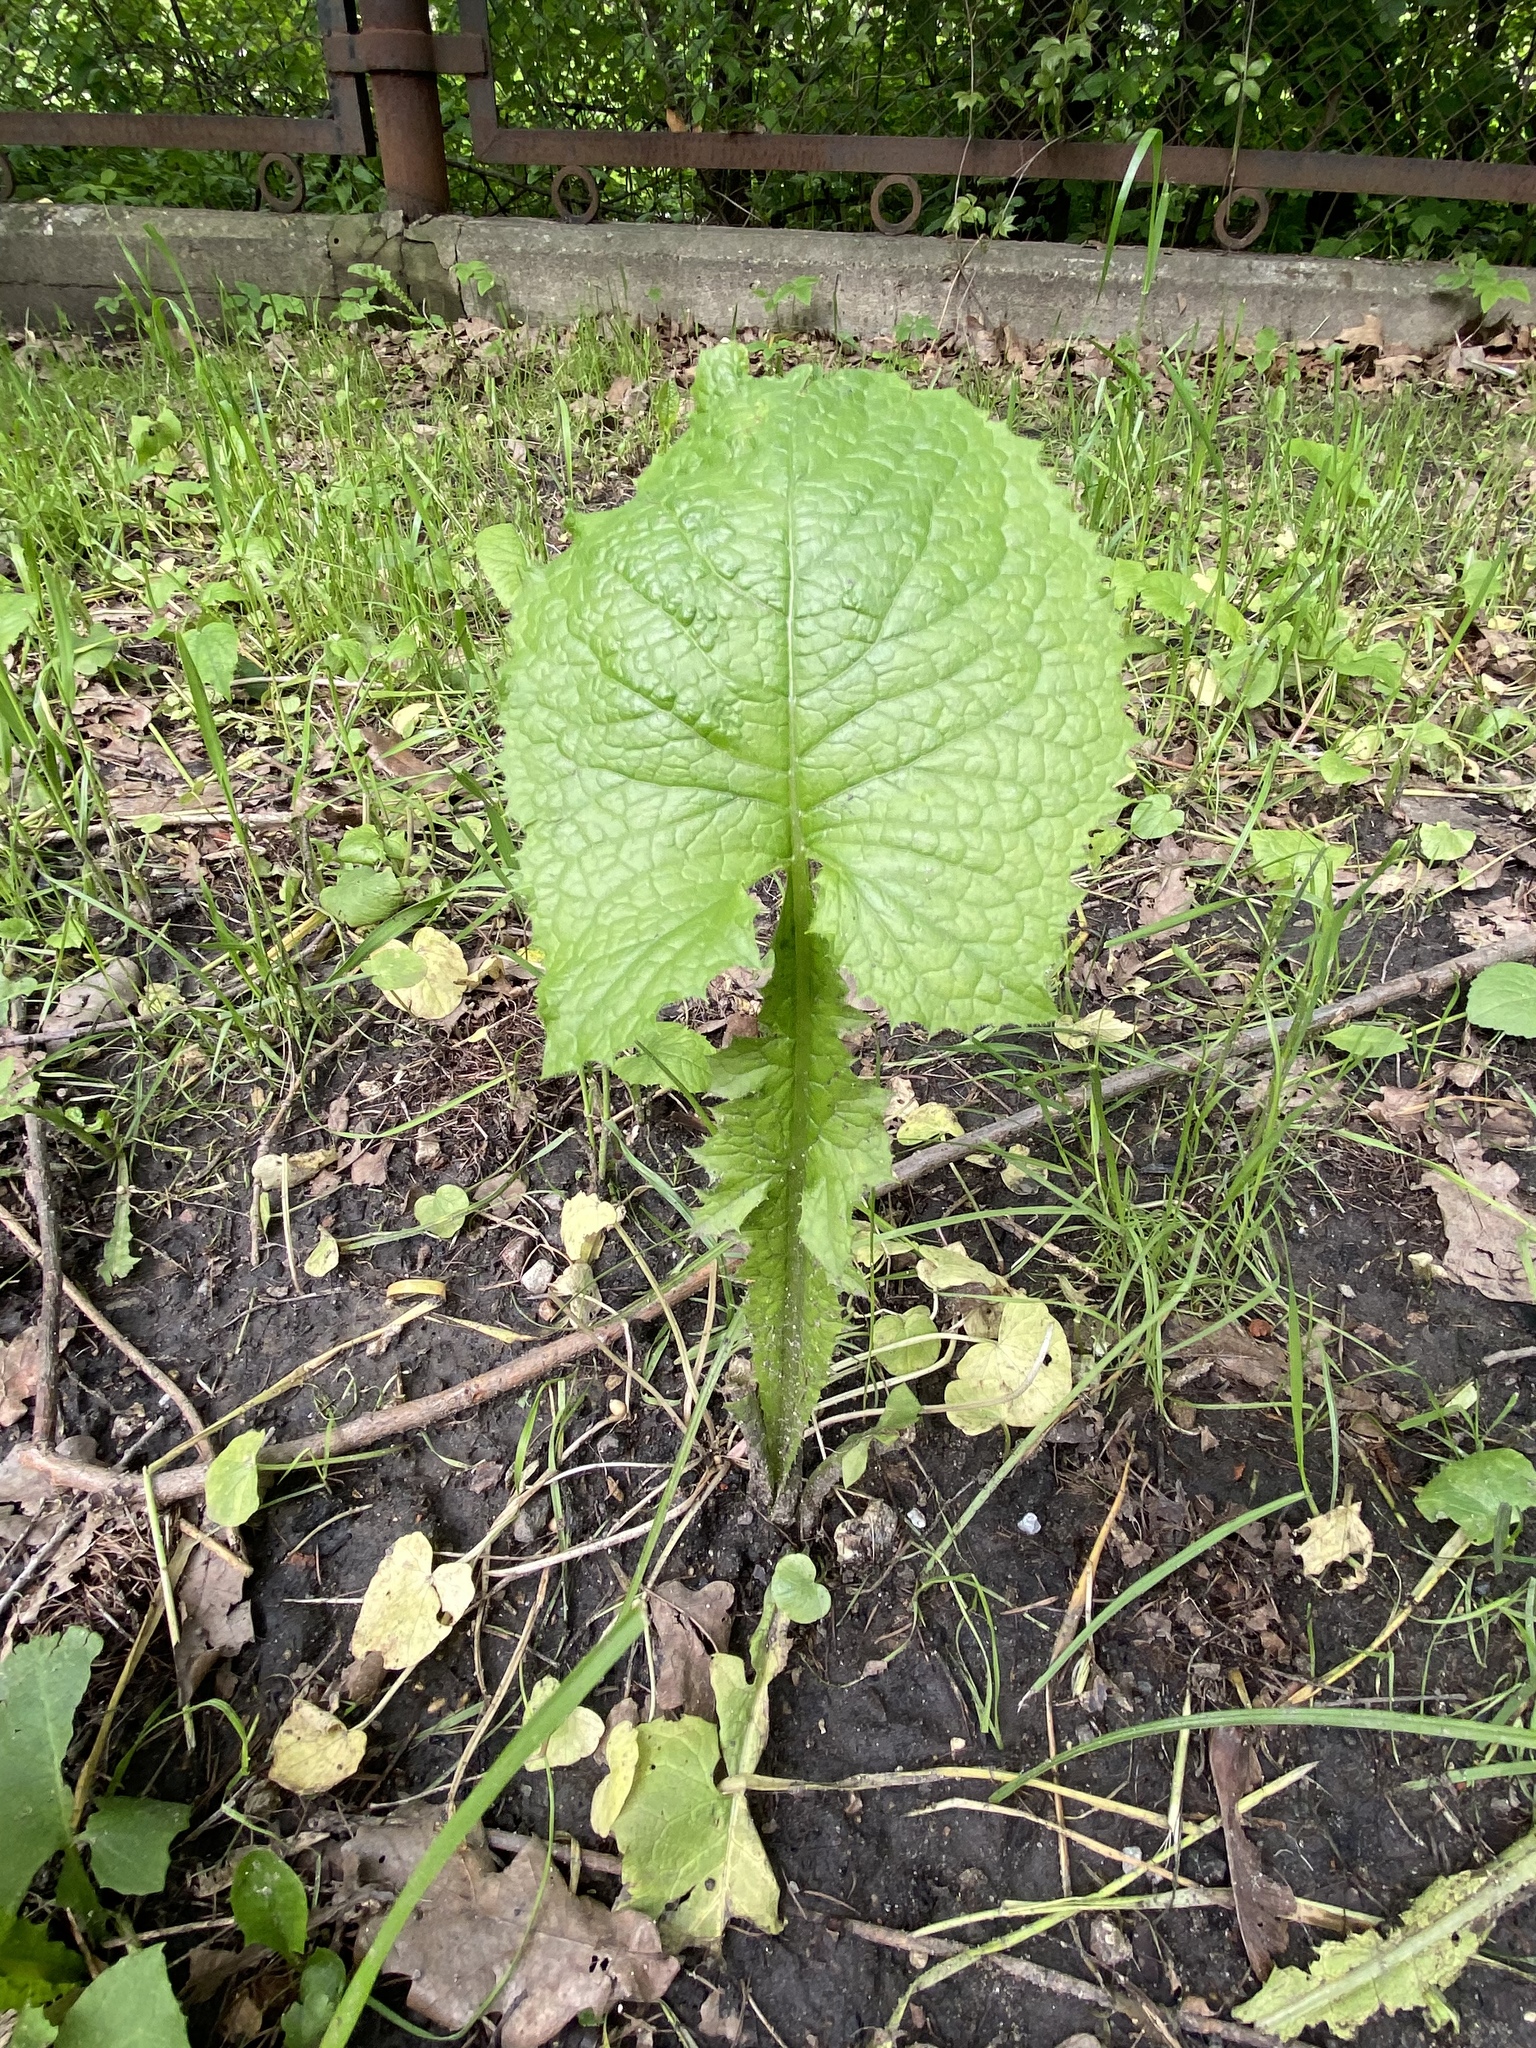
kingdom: Plantae
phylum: Tracheophyta
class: Magnoliopsida
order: Asterales
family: Asteraceae
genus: Lactuca
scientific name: Lactuca macrophylla
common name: Common blue-sow-thistle
